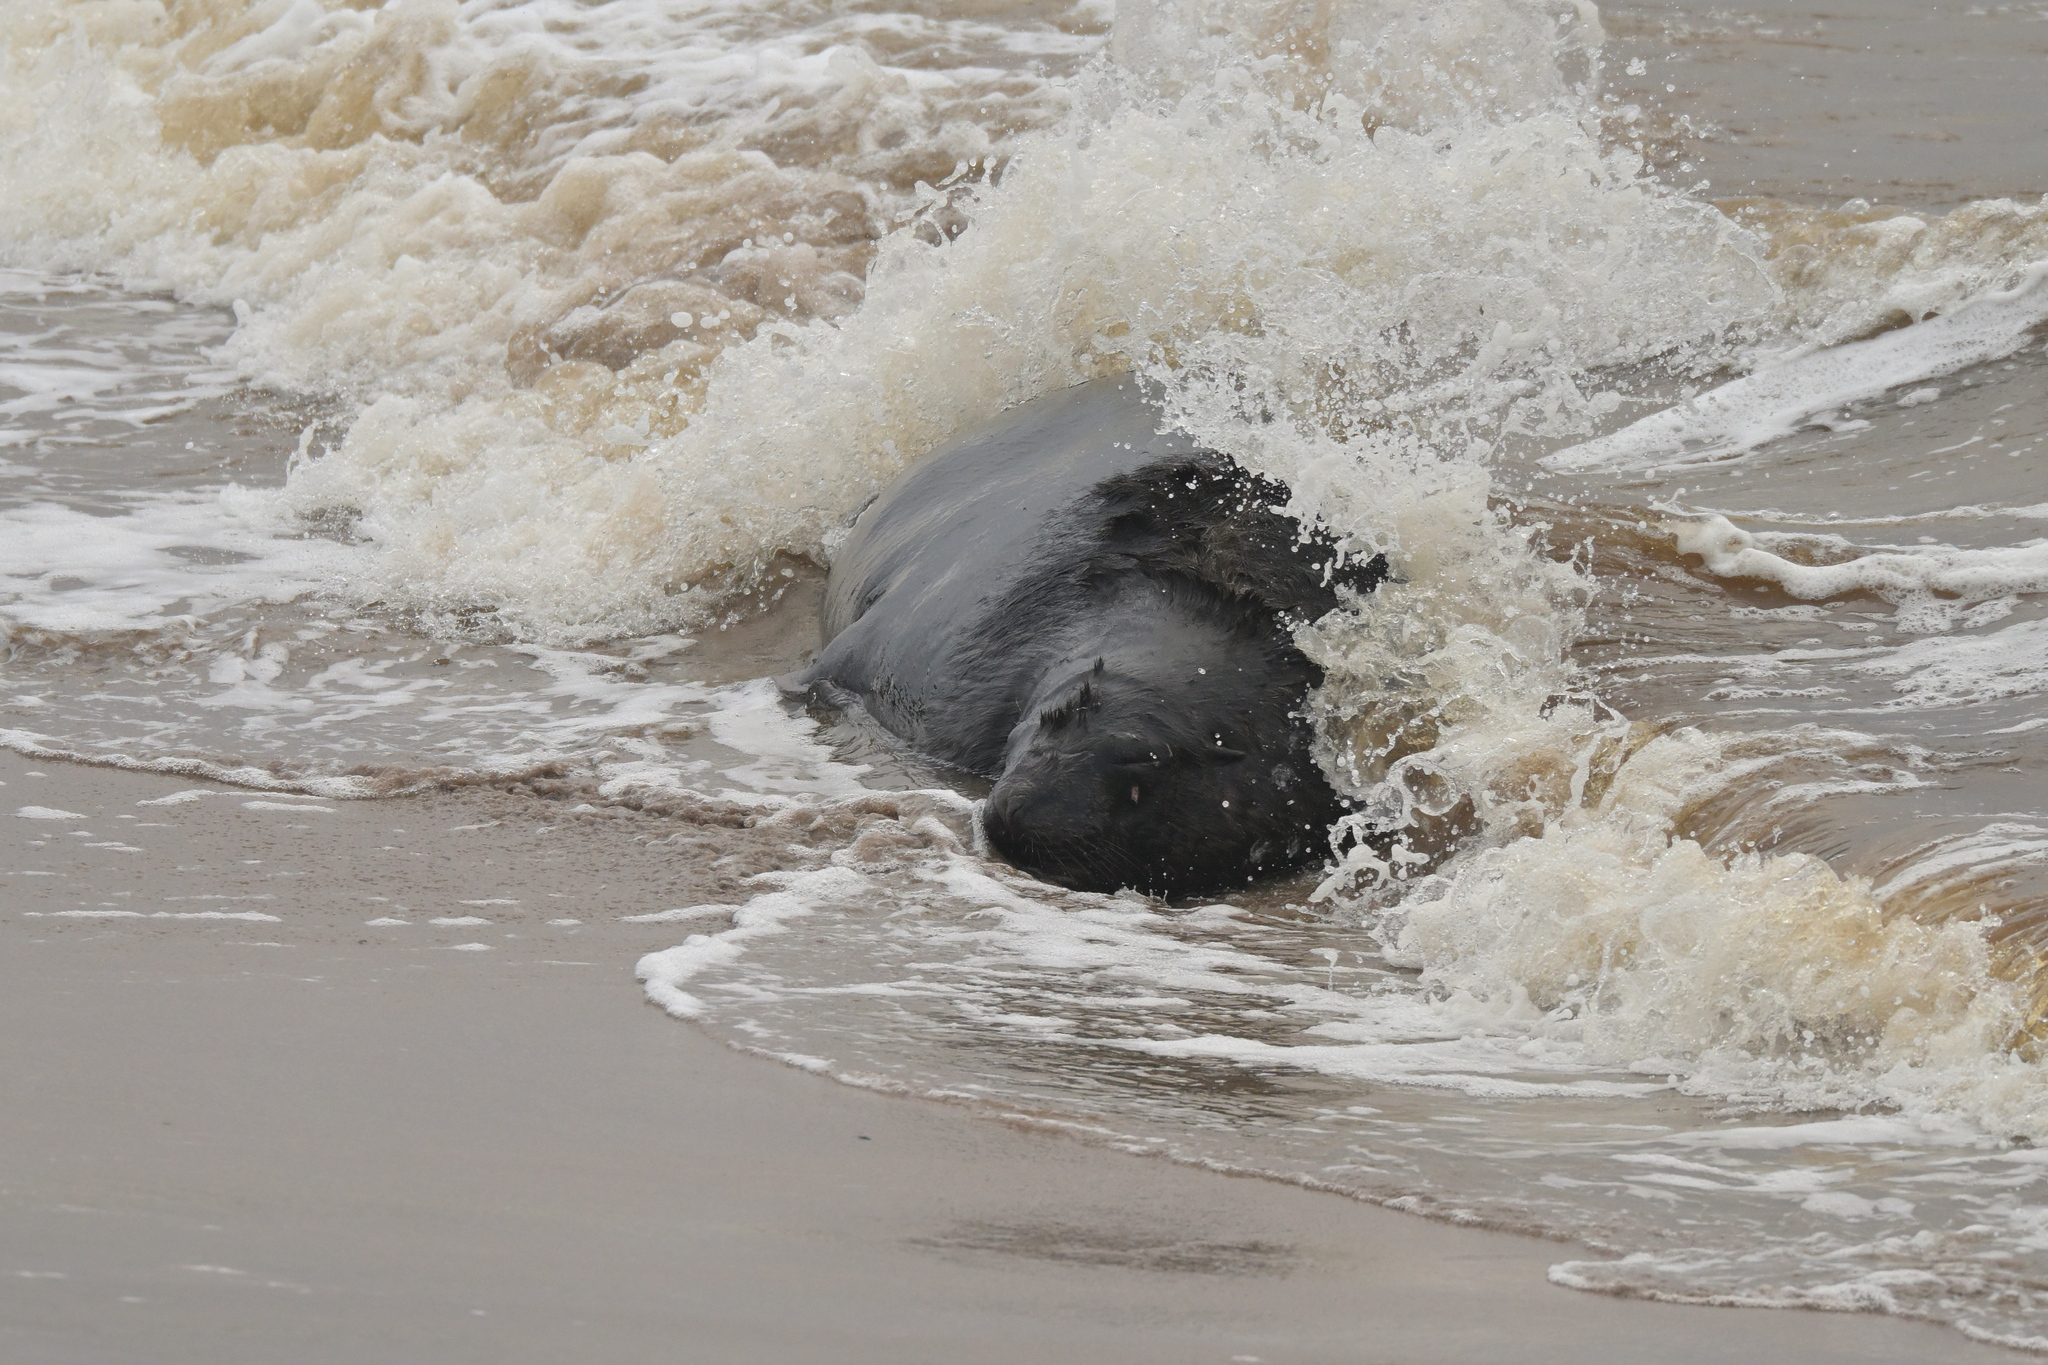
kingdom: Animalia
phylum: Chordata
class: Mammalia
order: Carnivora
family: Otariidae
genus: Phocarctos
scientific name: Phocarctos hookeri
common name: New zealand sea lion
